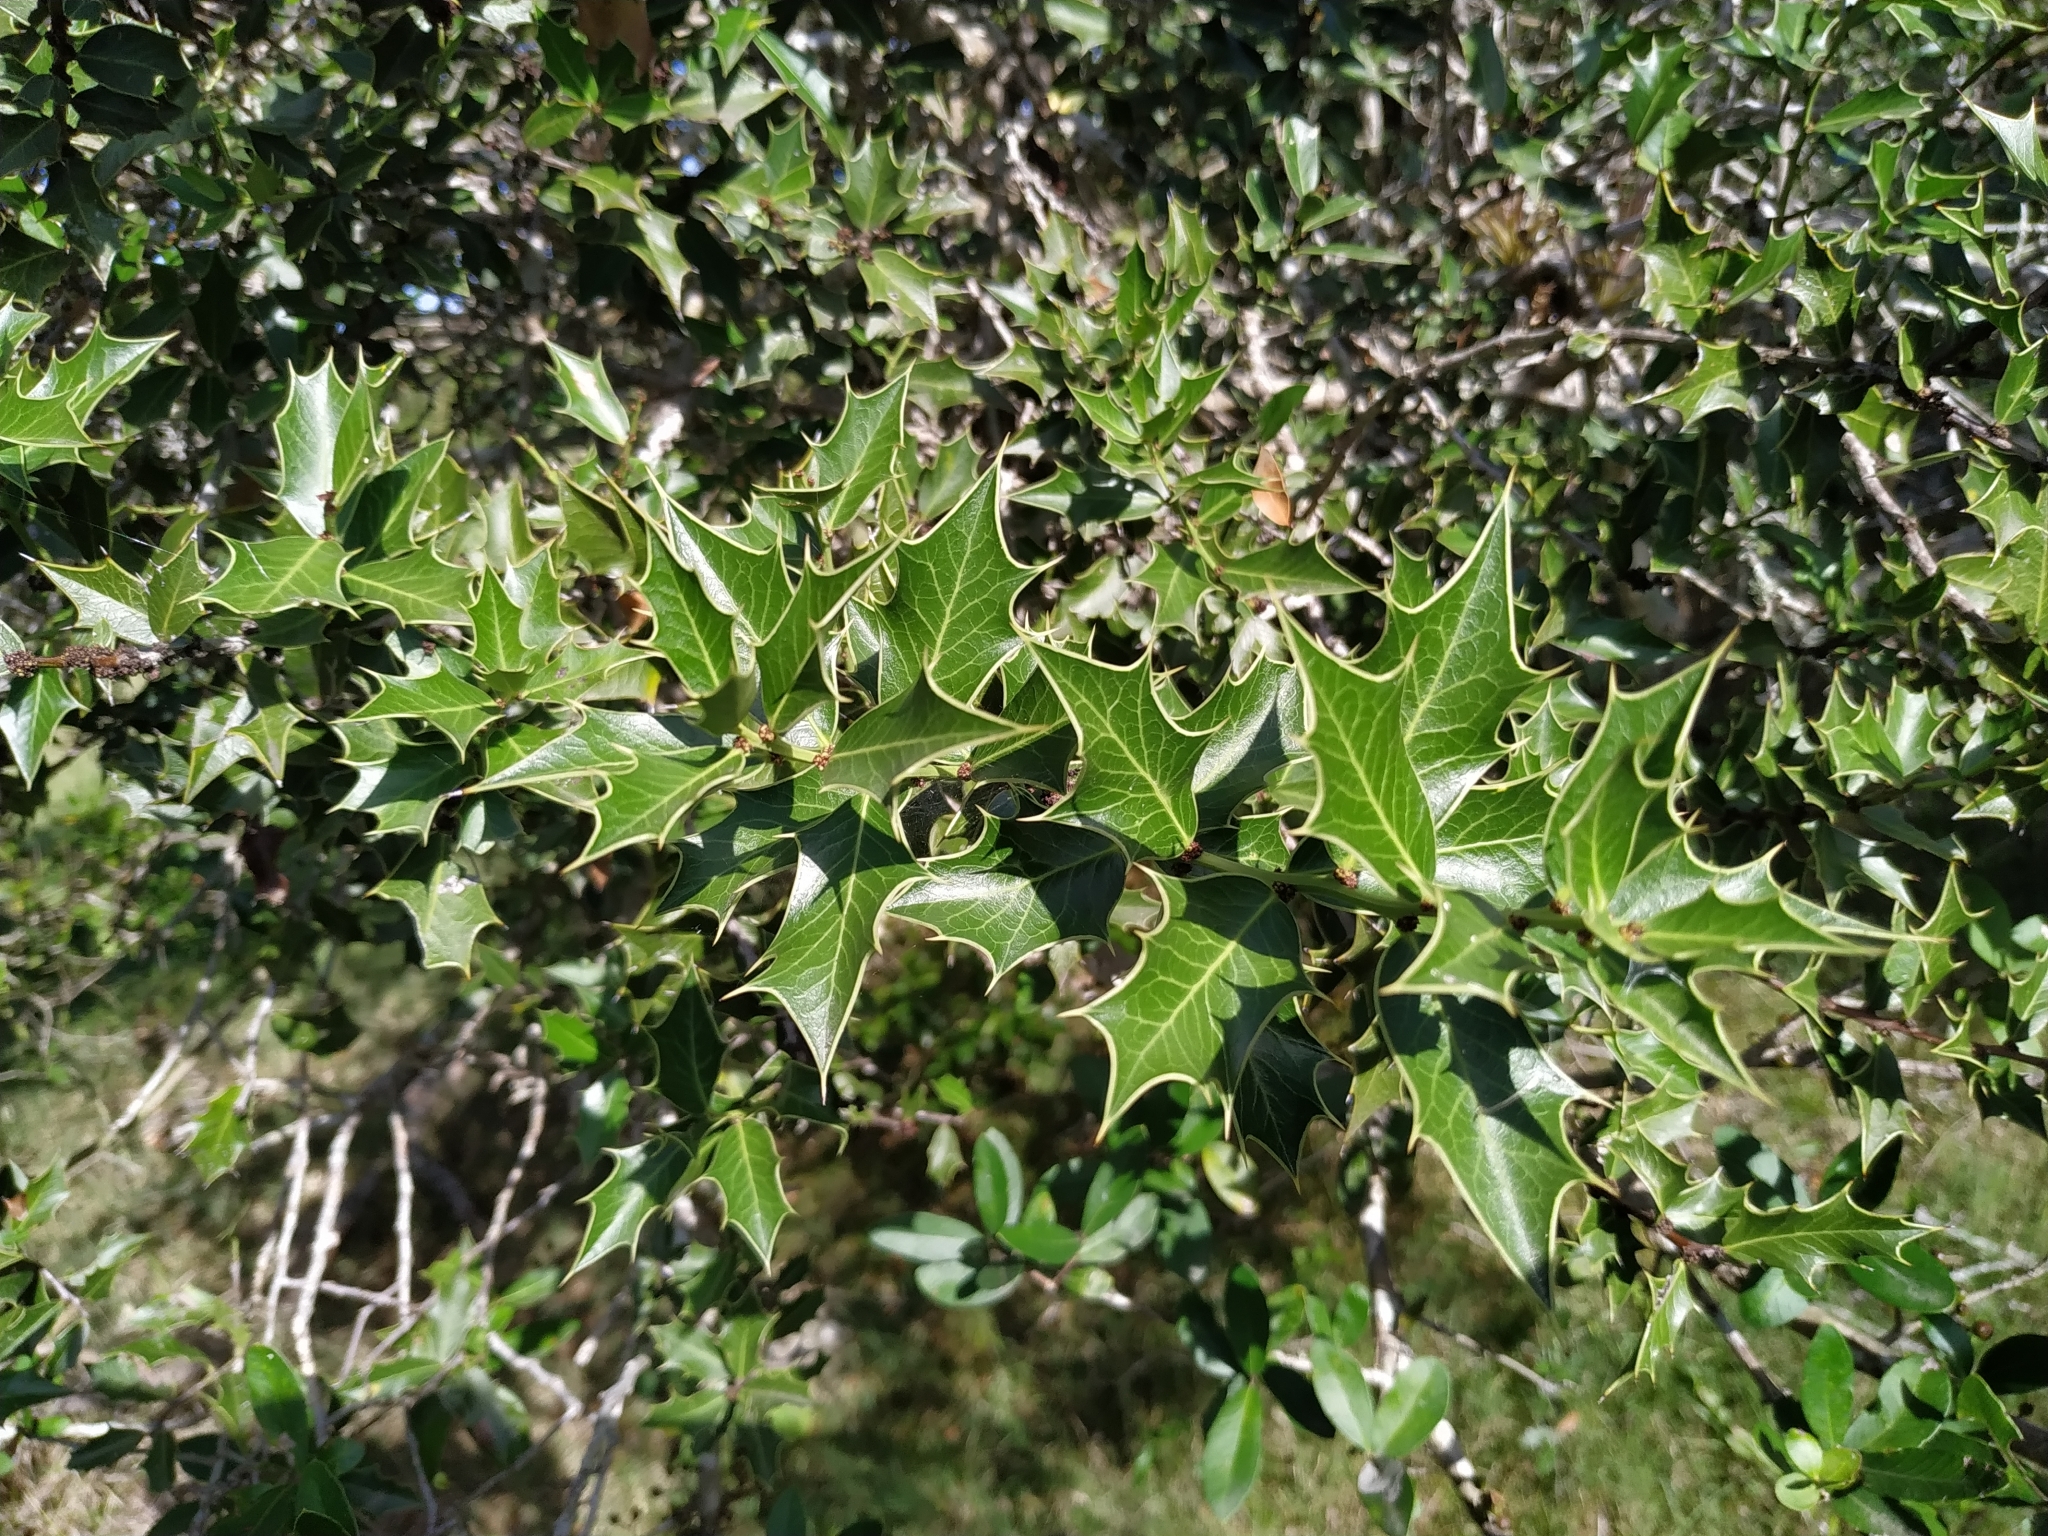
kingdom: Plantae
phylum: Tracheophyta
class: Magnoliopsida
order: Celastrales
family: Celastraceae
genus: Monteverdia
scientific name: Monteverdia
